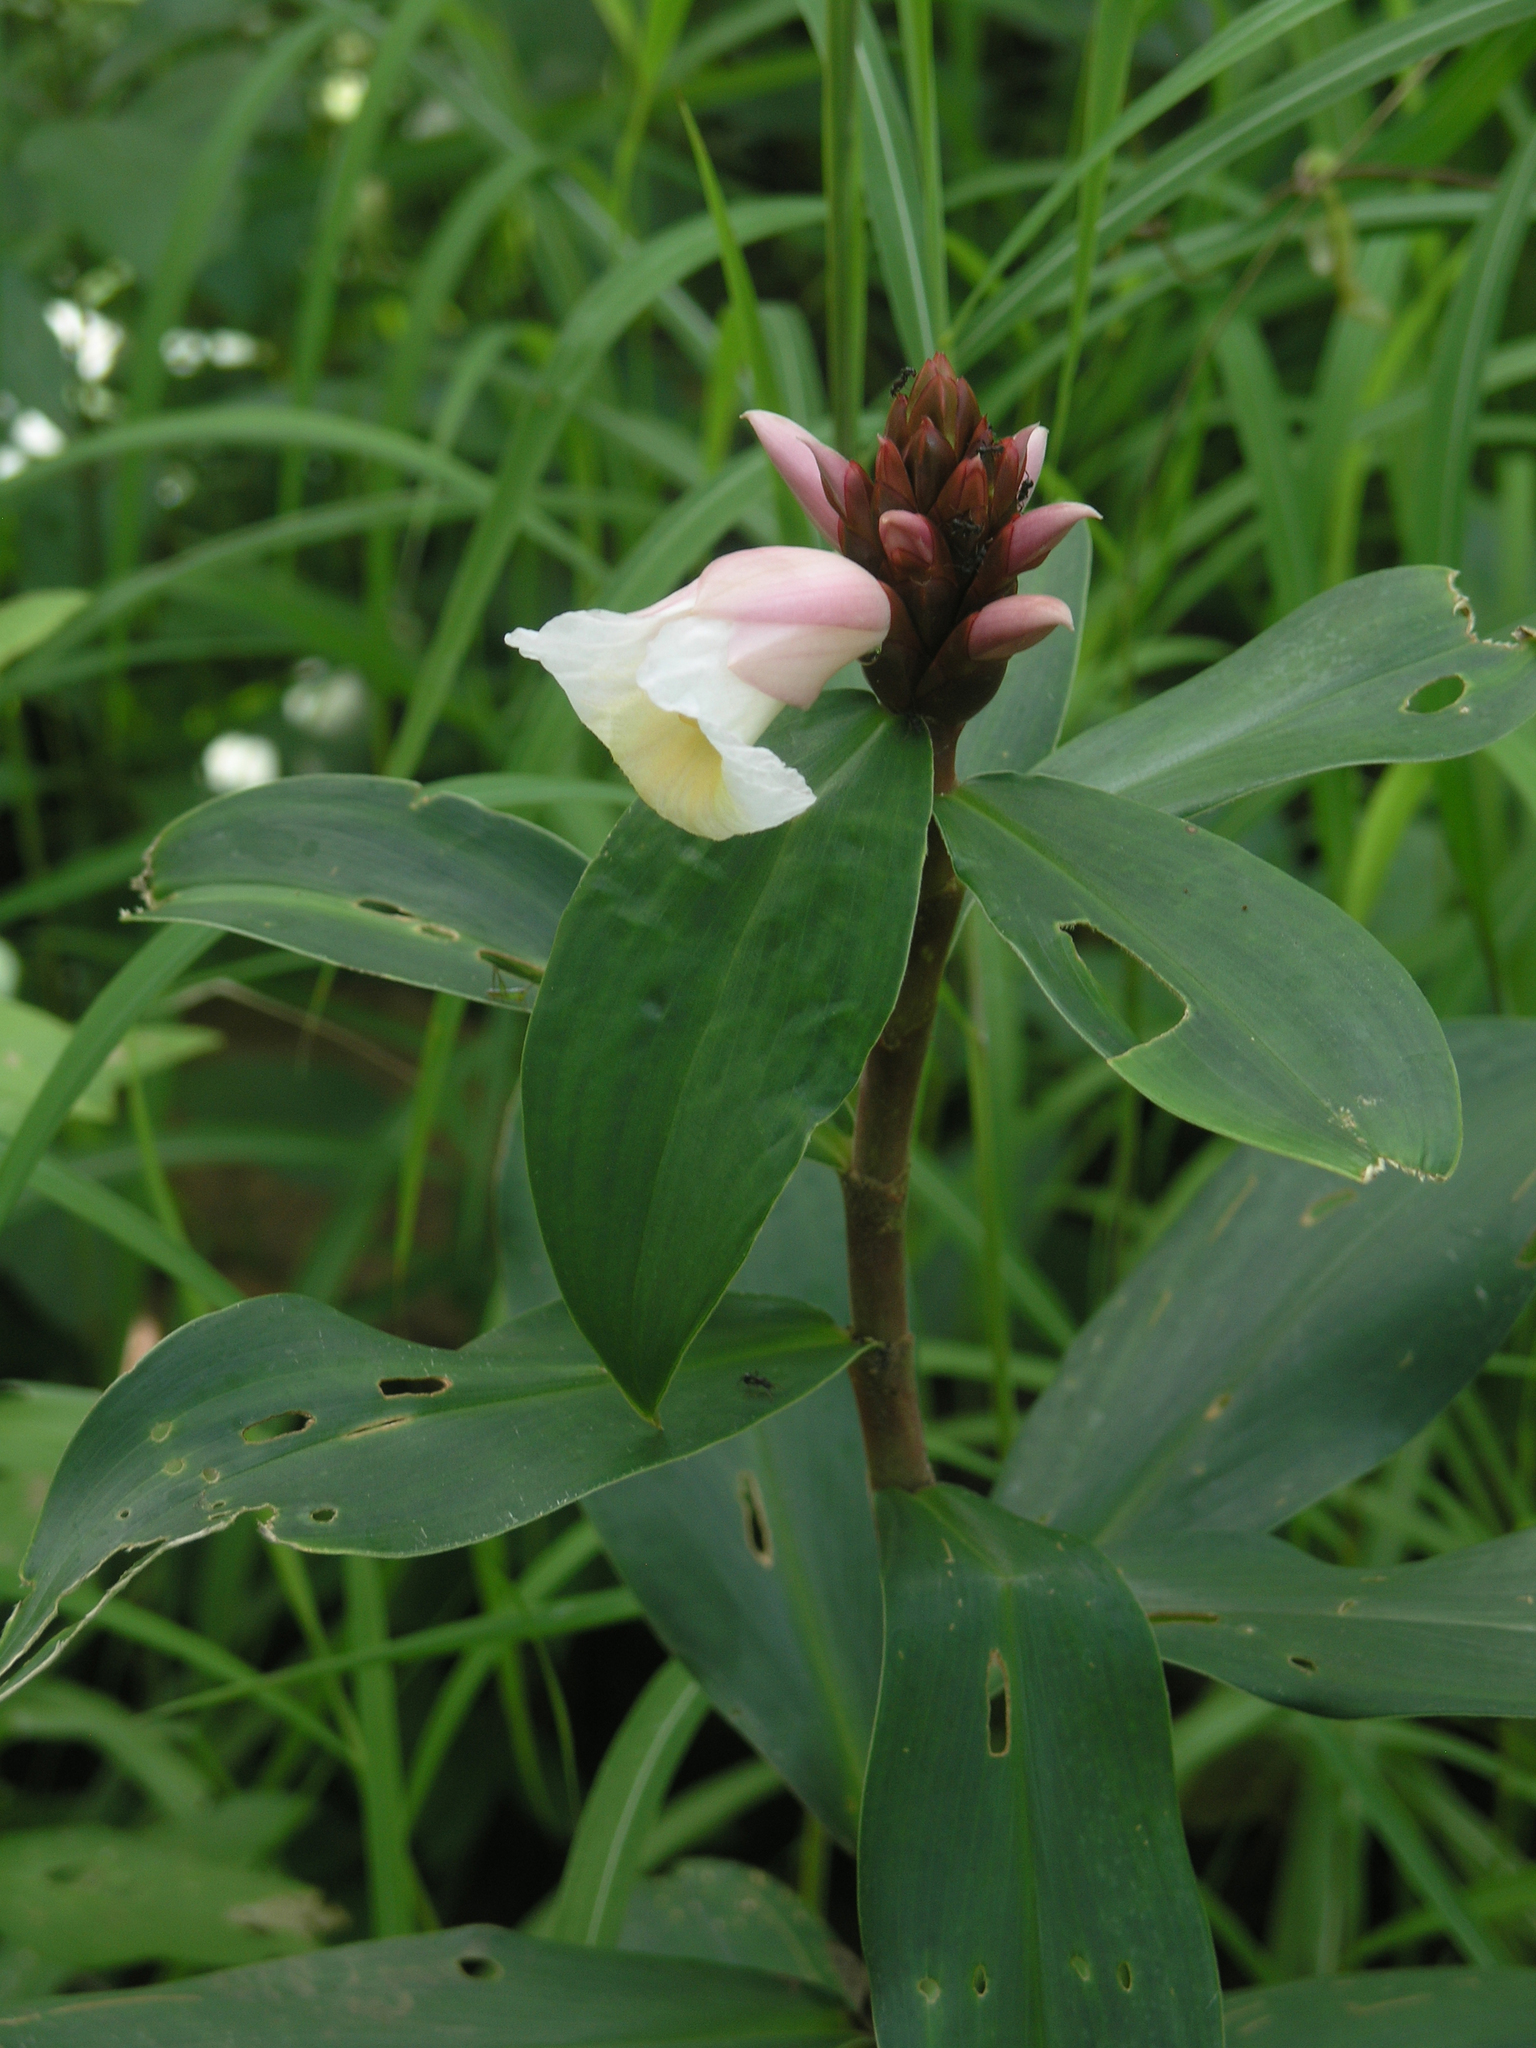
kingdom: Plantae
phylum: Tracheophyta
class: Liliopsida
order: Zingiberales
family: Costaceae
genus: Hellenia
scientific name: Hellenia speciosa
